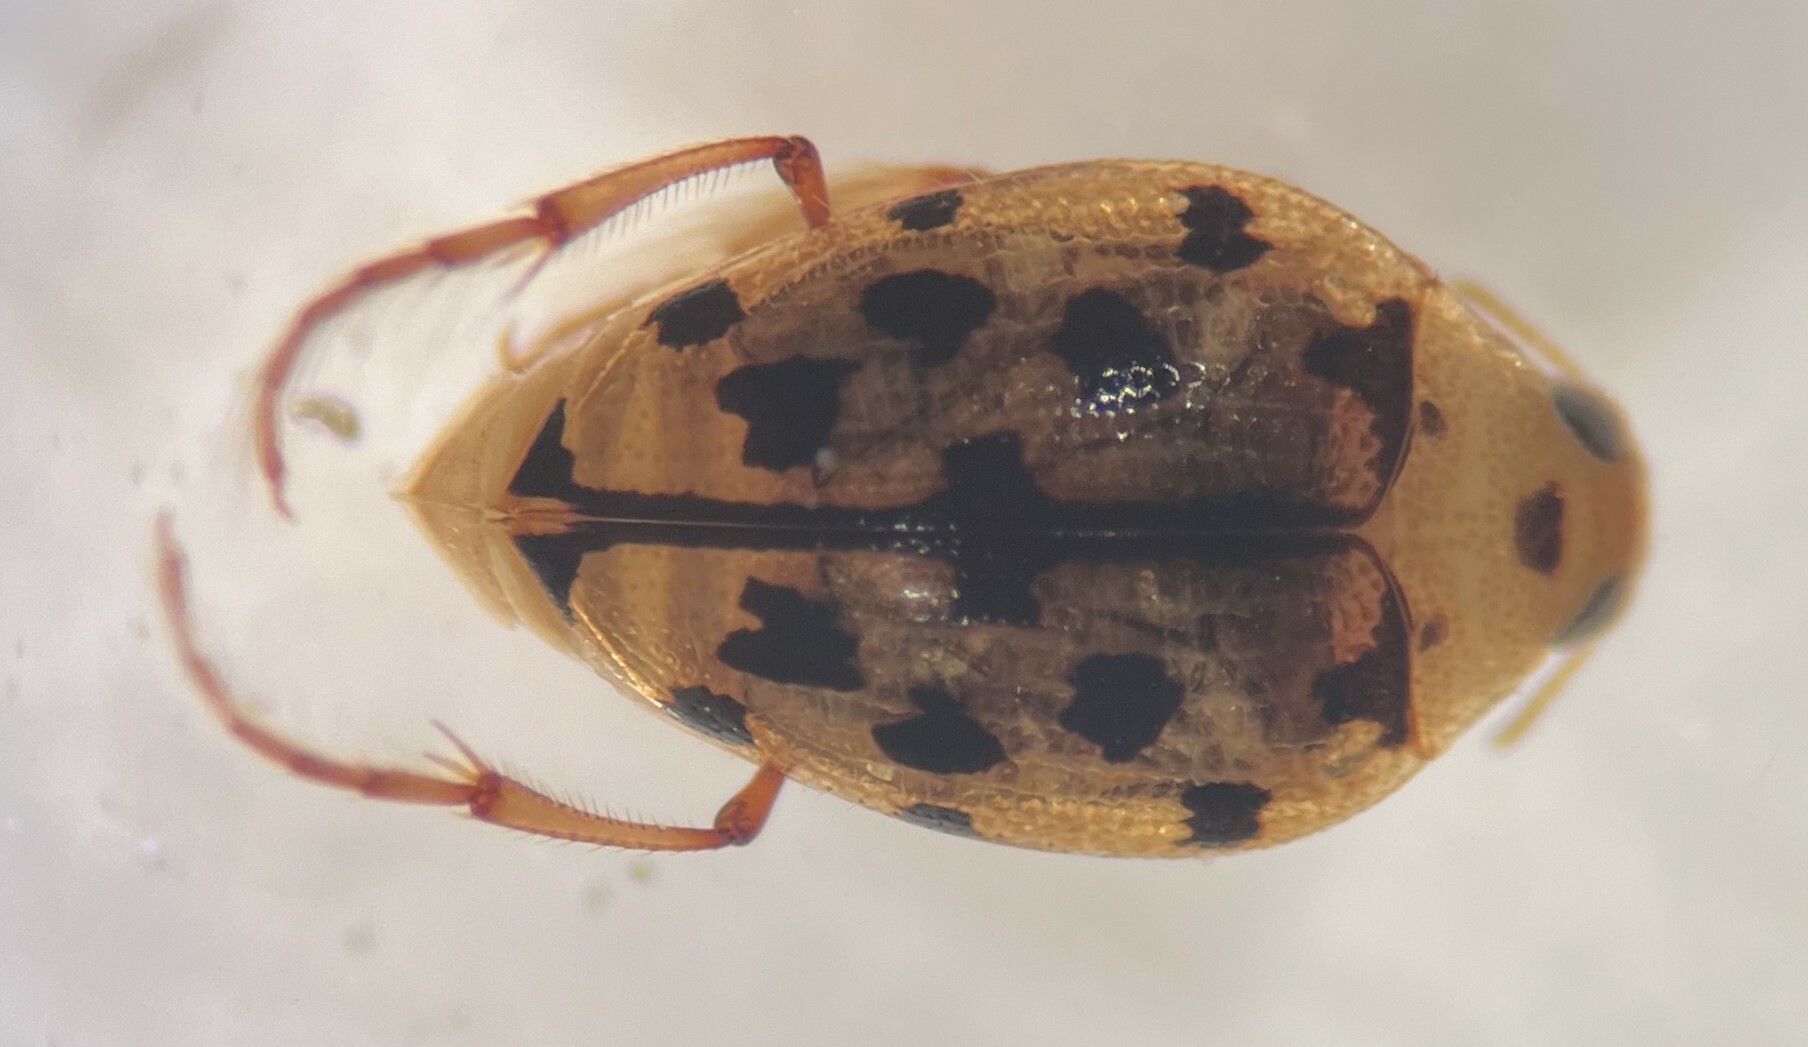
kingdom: Animalia
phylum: Arthropoda
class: Insecta
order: Coleoptera
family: Haliplidae
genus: Haliplus
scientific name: Haliplus deceptus
